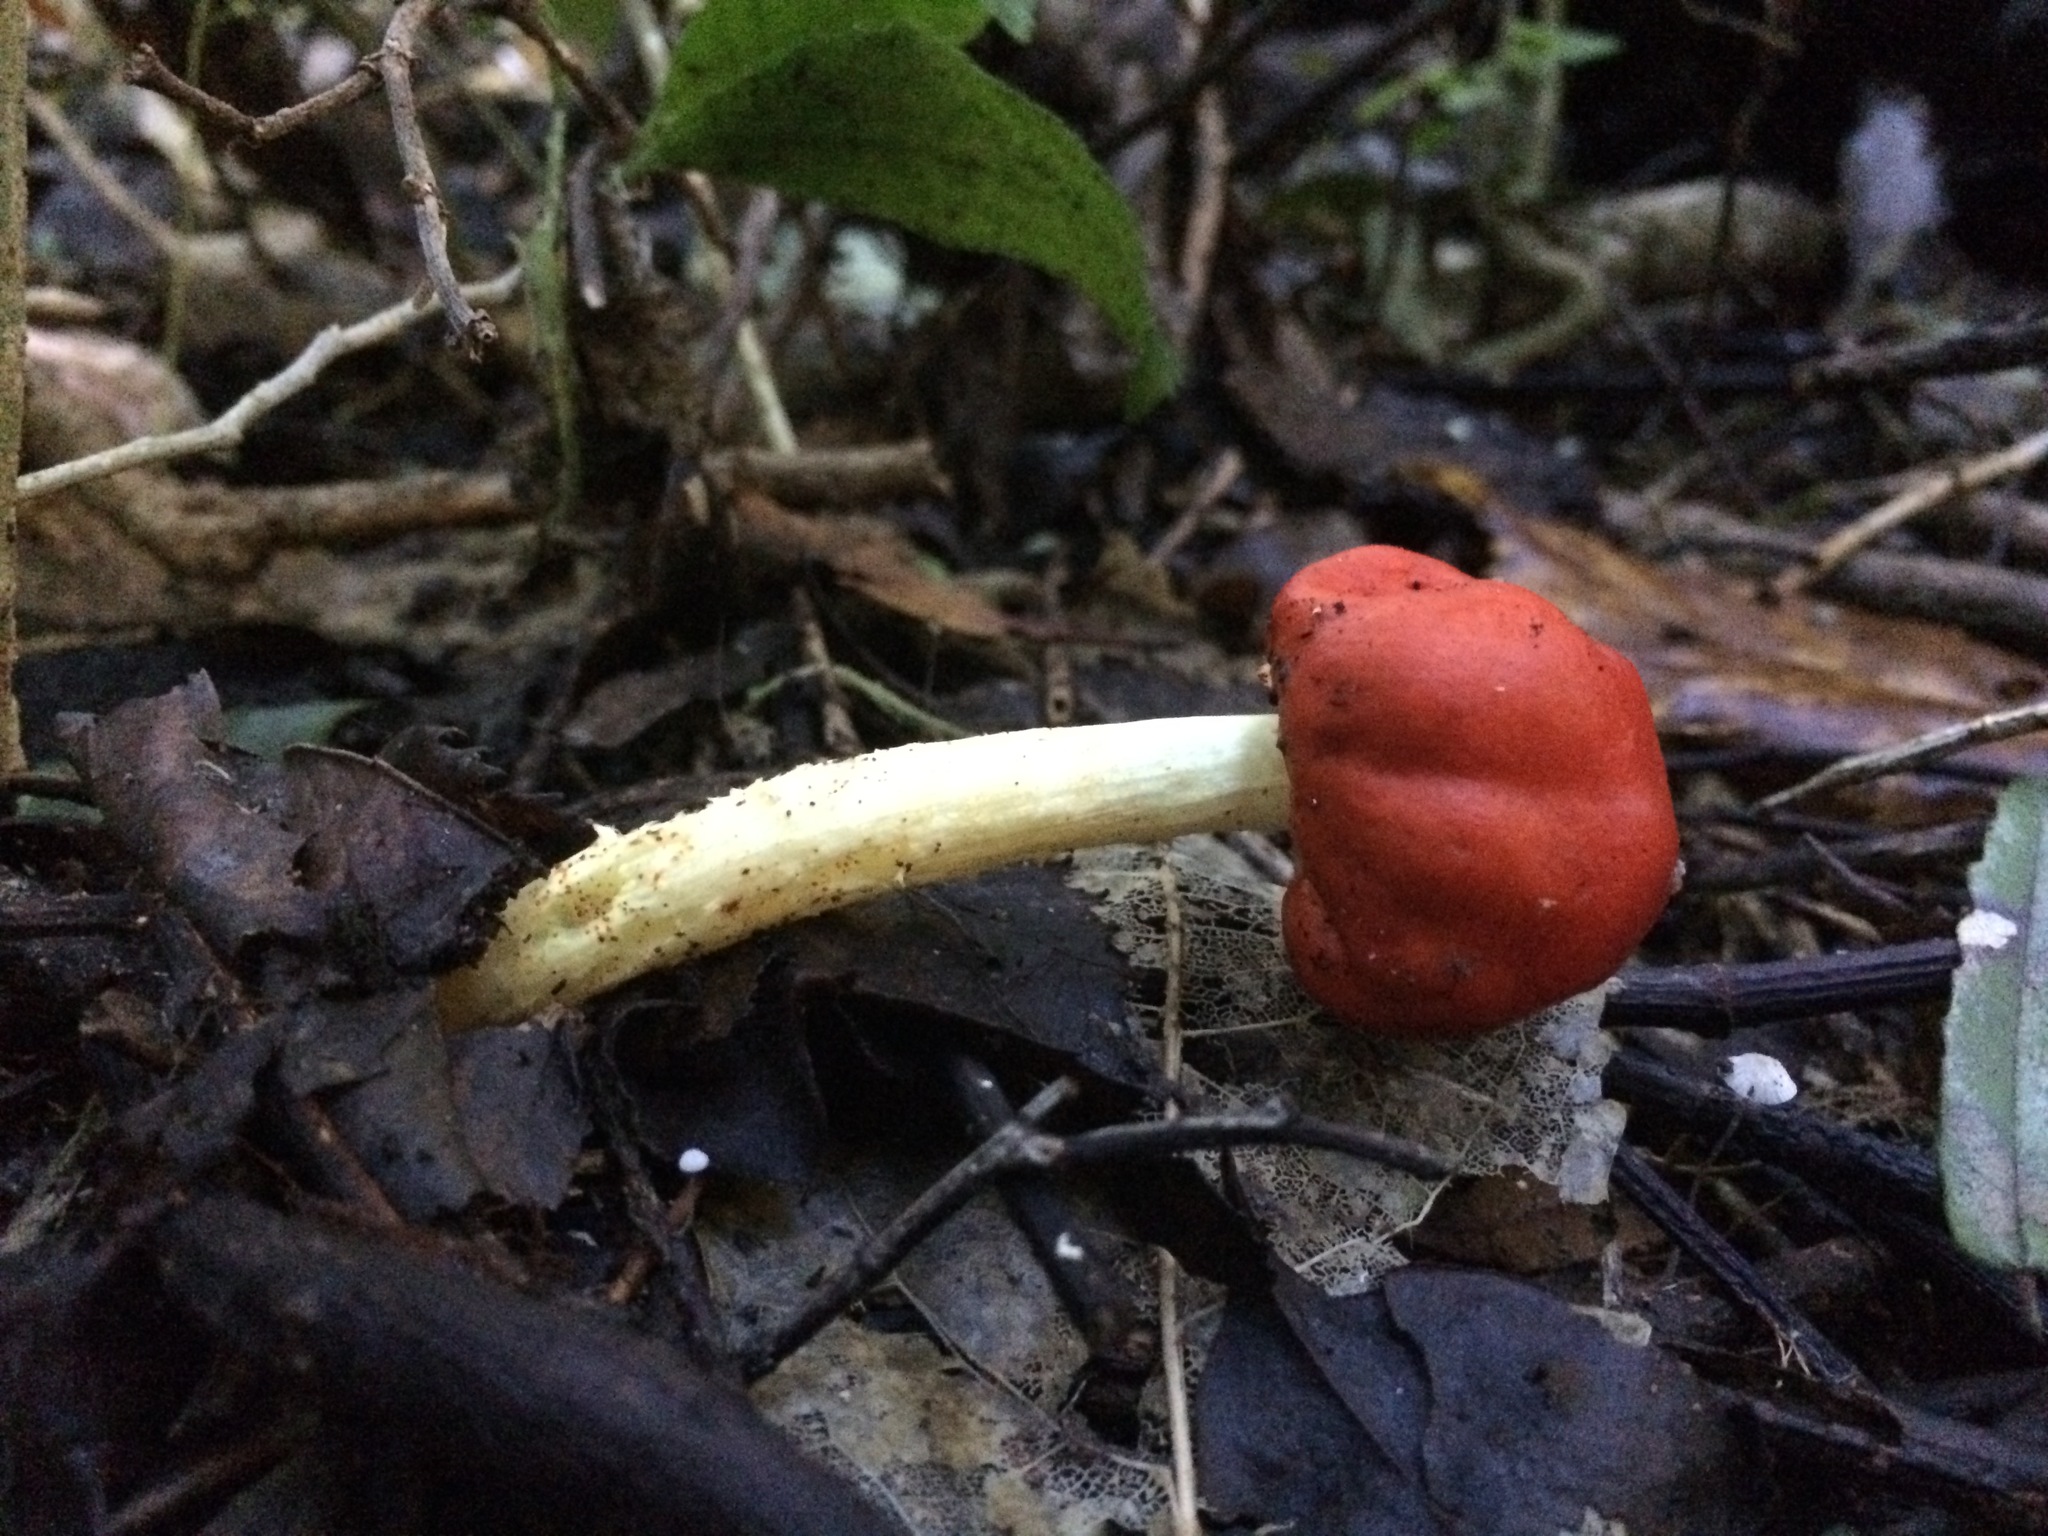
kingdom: Fungi
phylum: Basidiomycota
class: Agaricomycetes
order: Agaricales
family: Strophariaceae
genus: Leratiomyces
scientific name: Leratiomyces erythrocephalus
